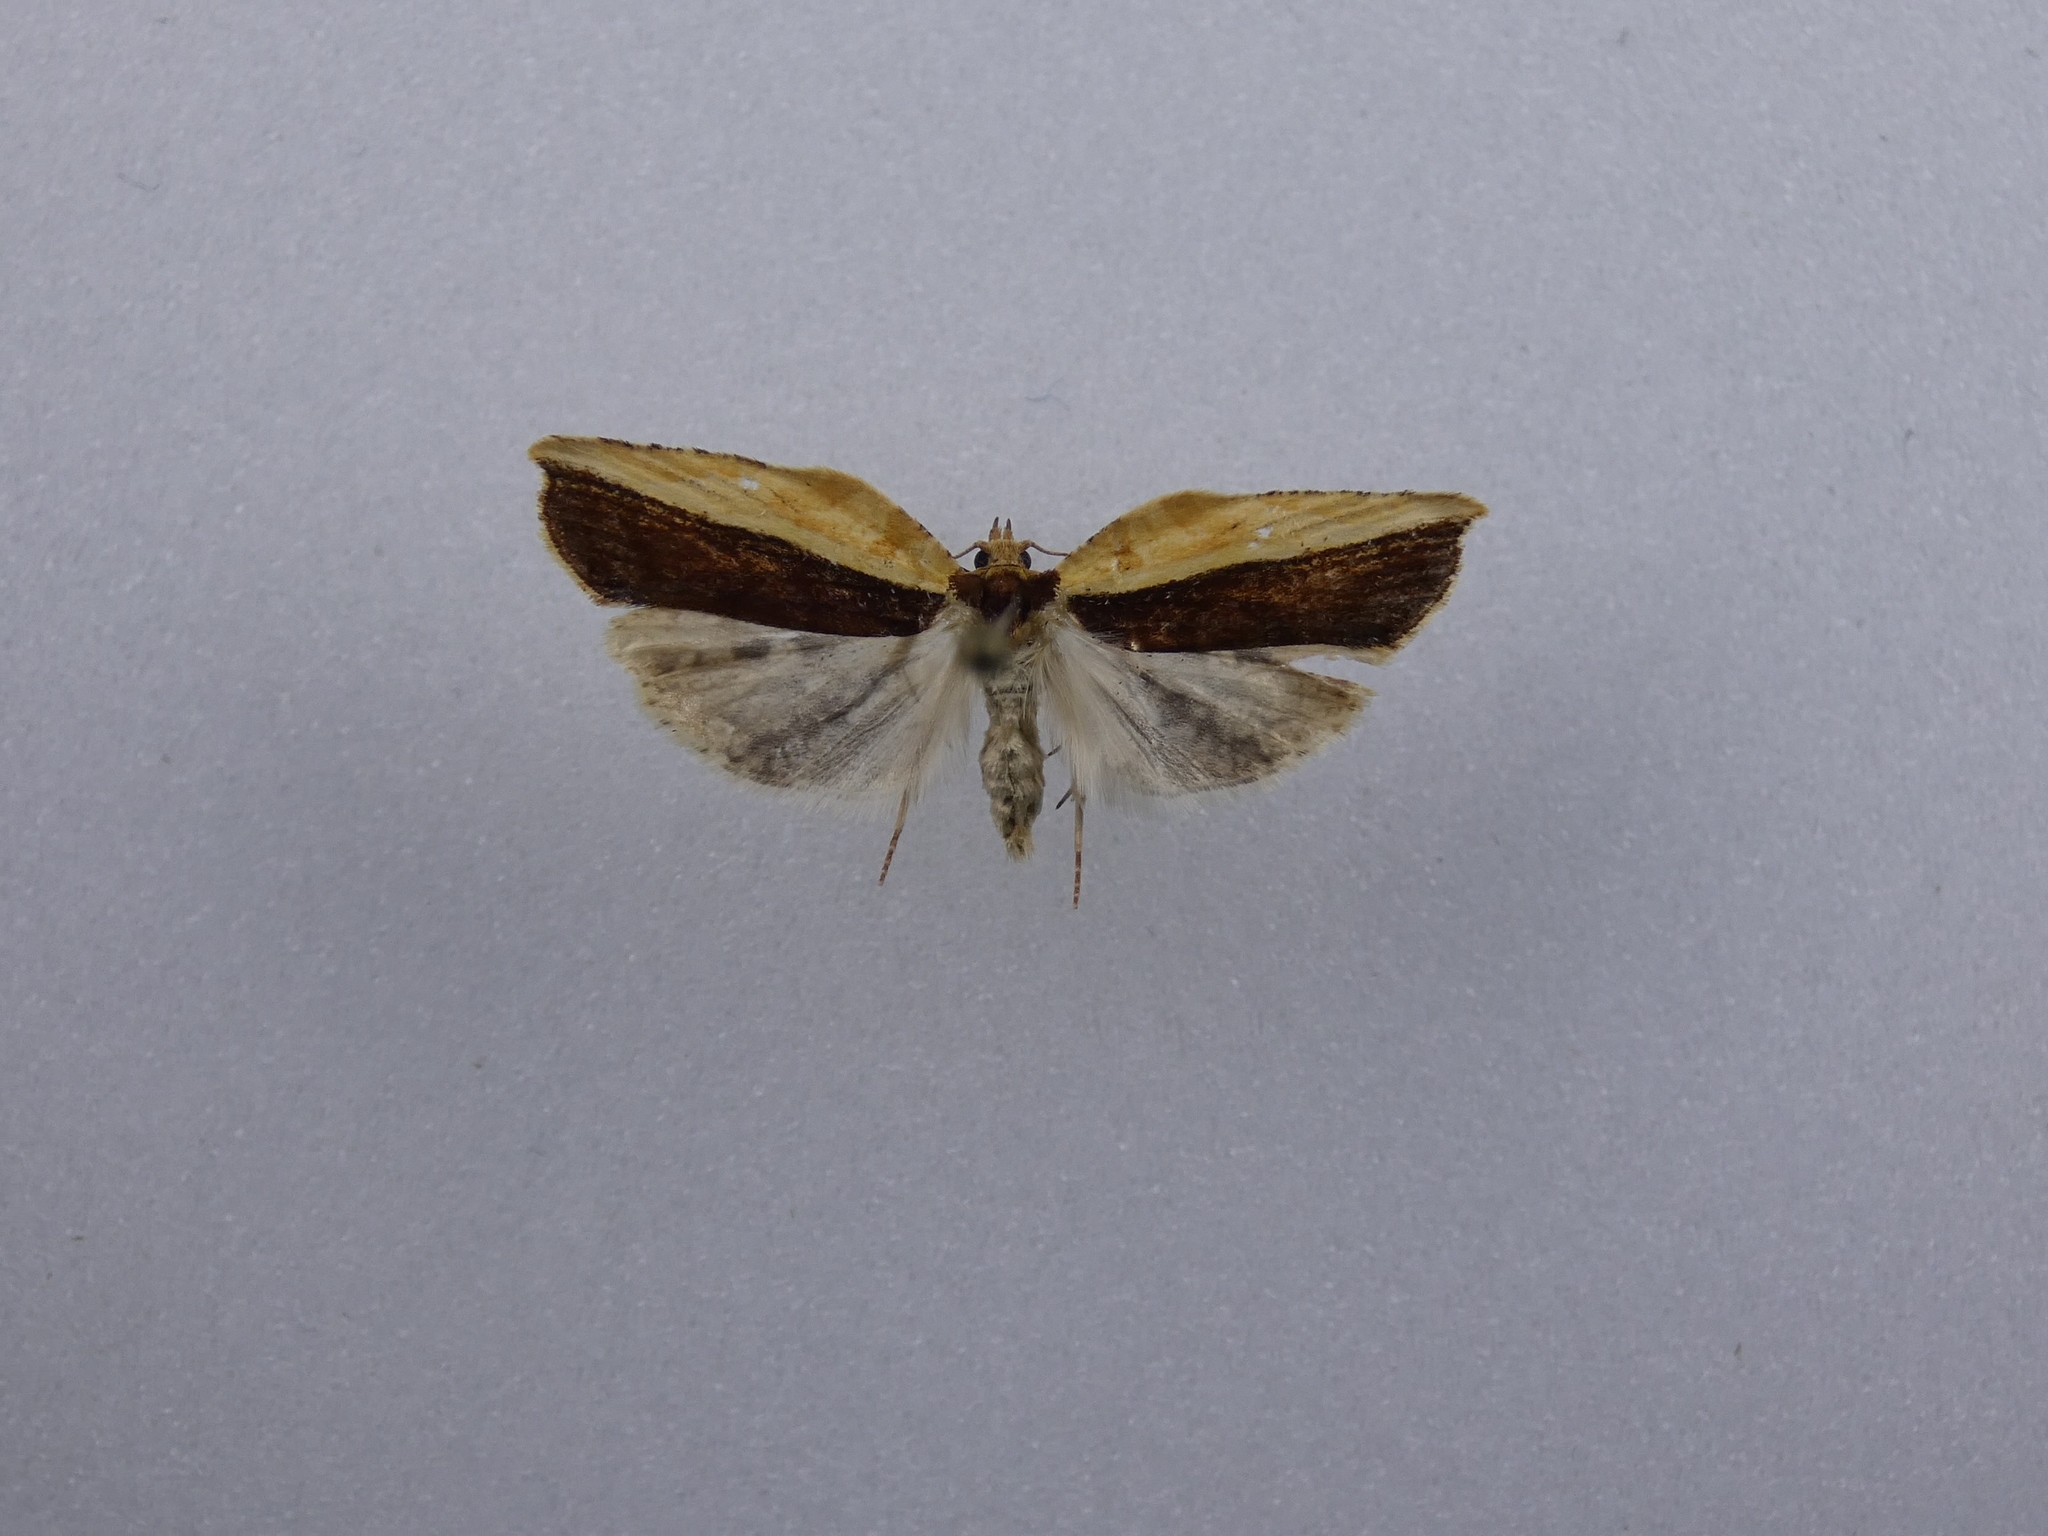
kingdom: Animalia
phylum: Arthropoda
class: Insecta
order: Lepidoptera
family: Tortricidae
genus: Epalxiphora
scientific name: Epalxiphora axenana
